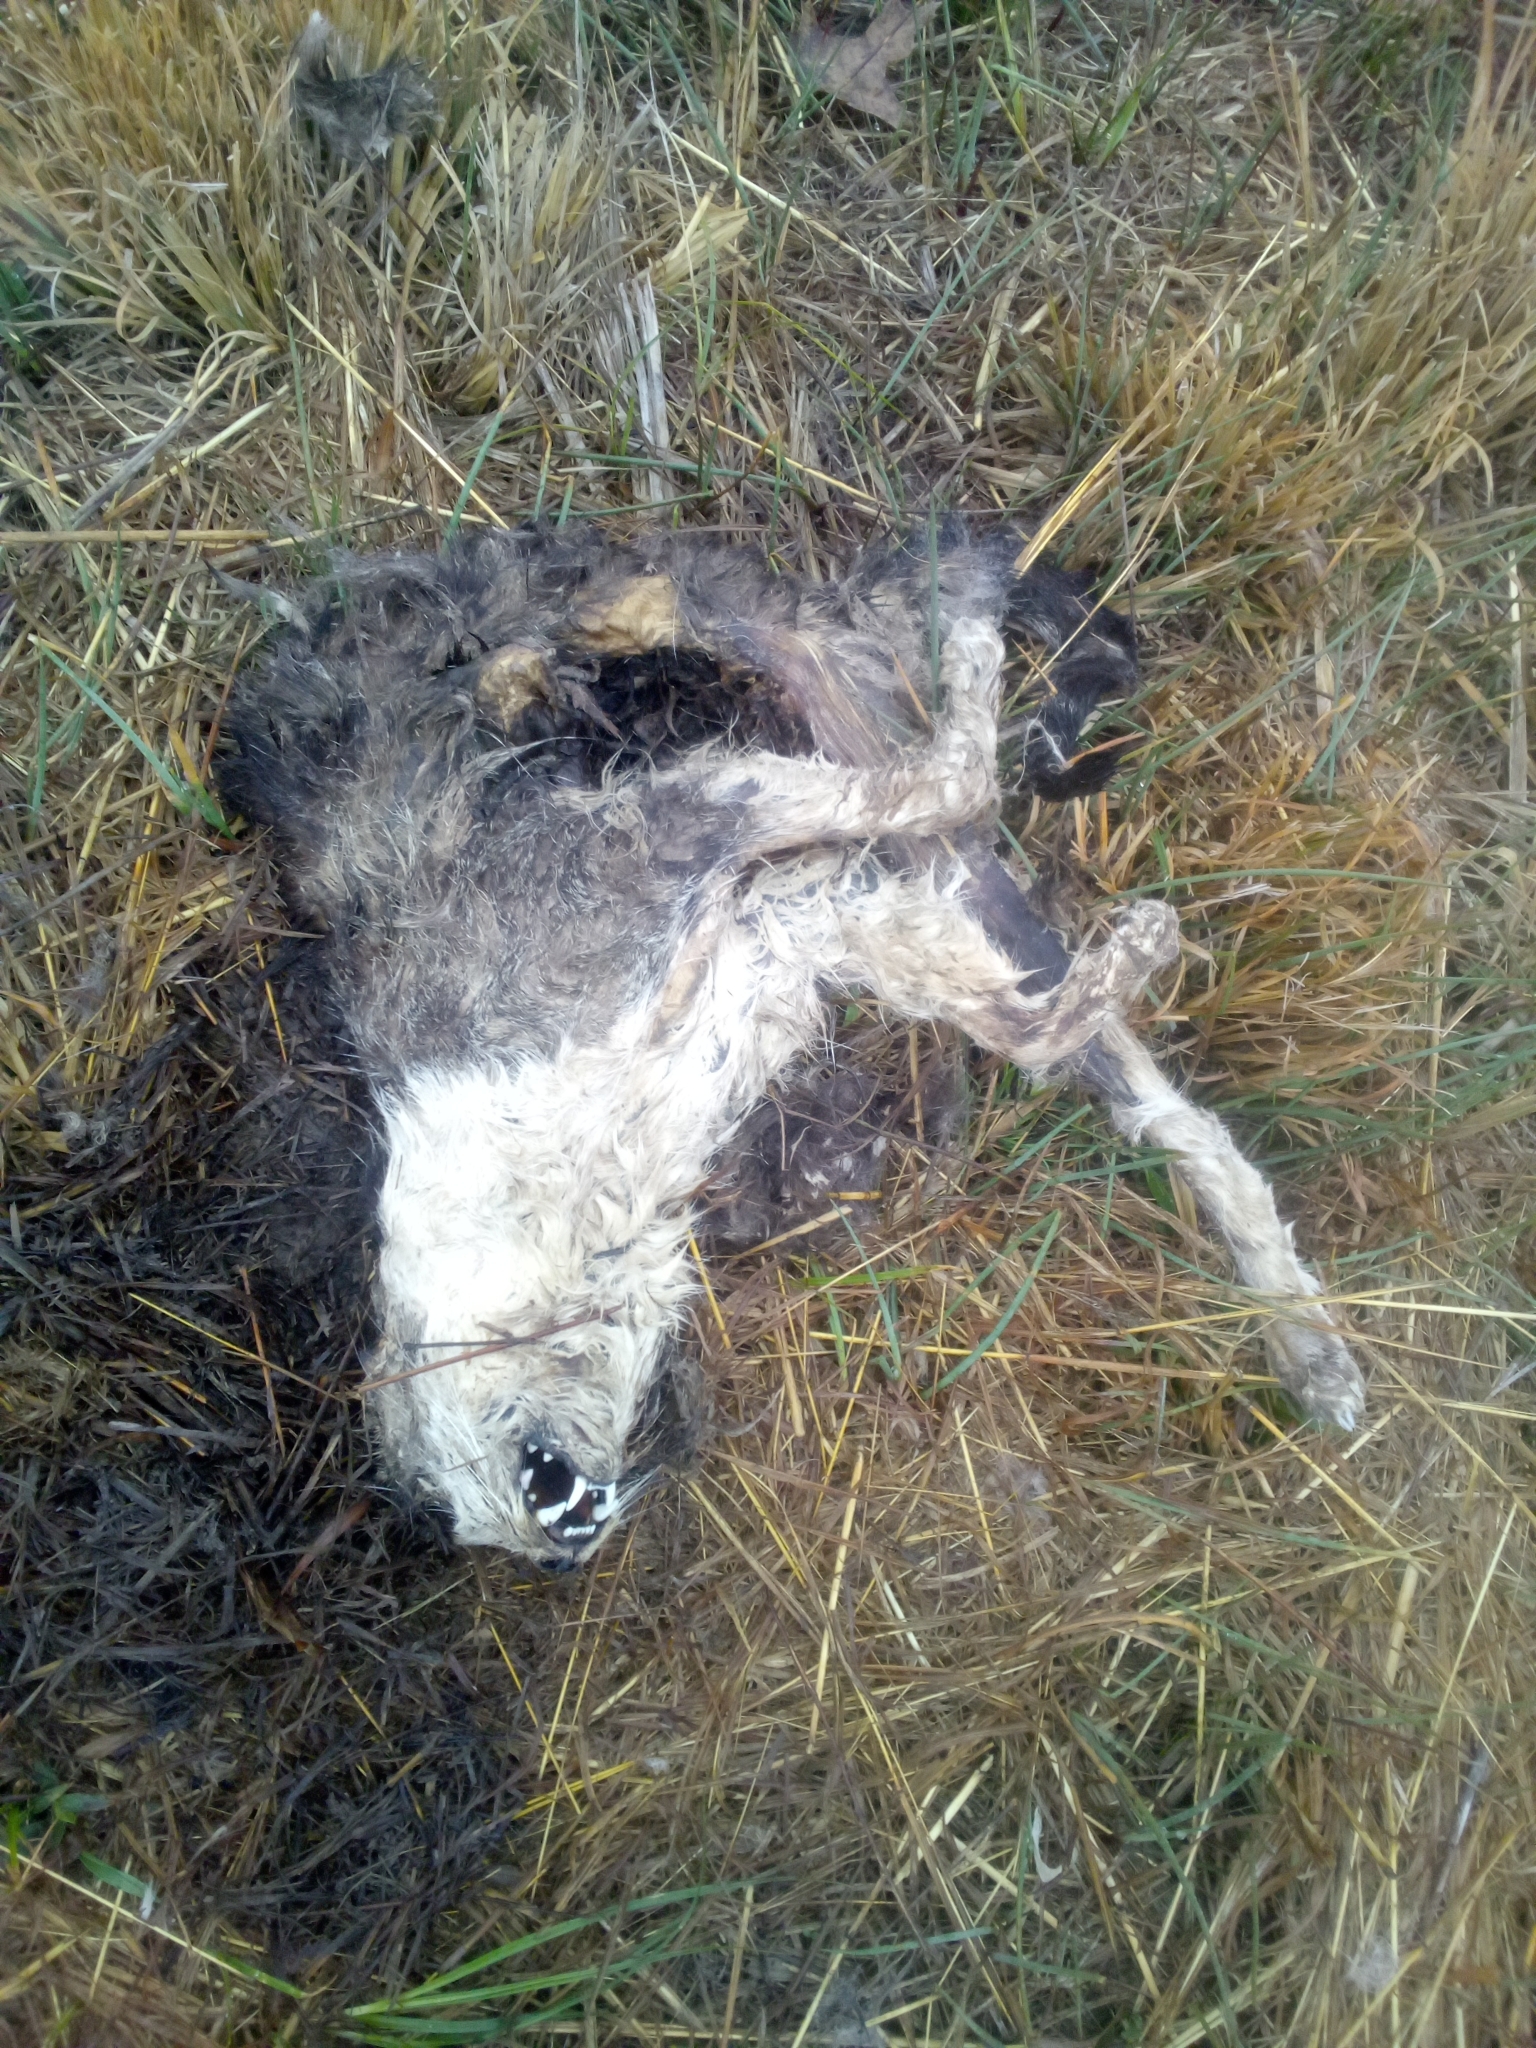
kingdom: Animalia
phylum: Chordata
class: Mammalia
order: Carnivora
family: Felidae
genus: Felis
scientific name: Felis catus
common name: Domestic cat
